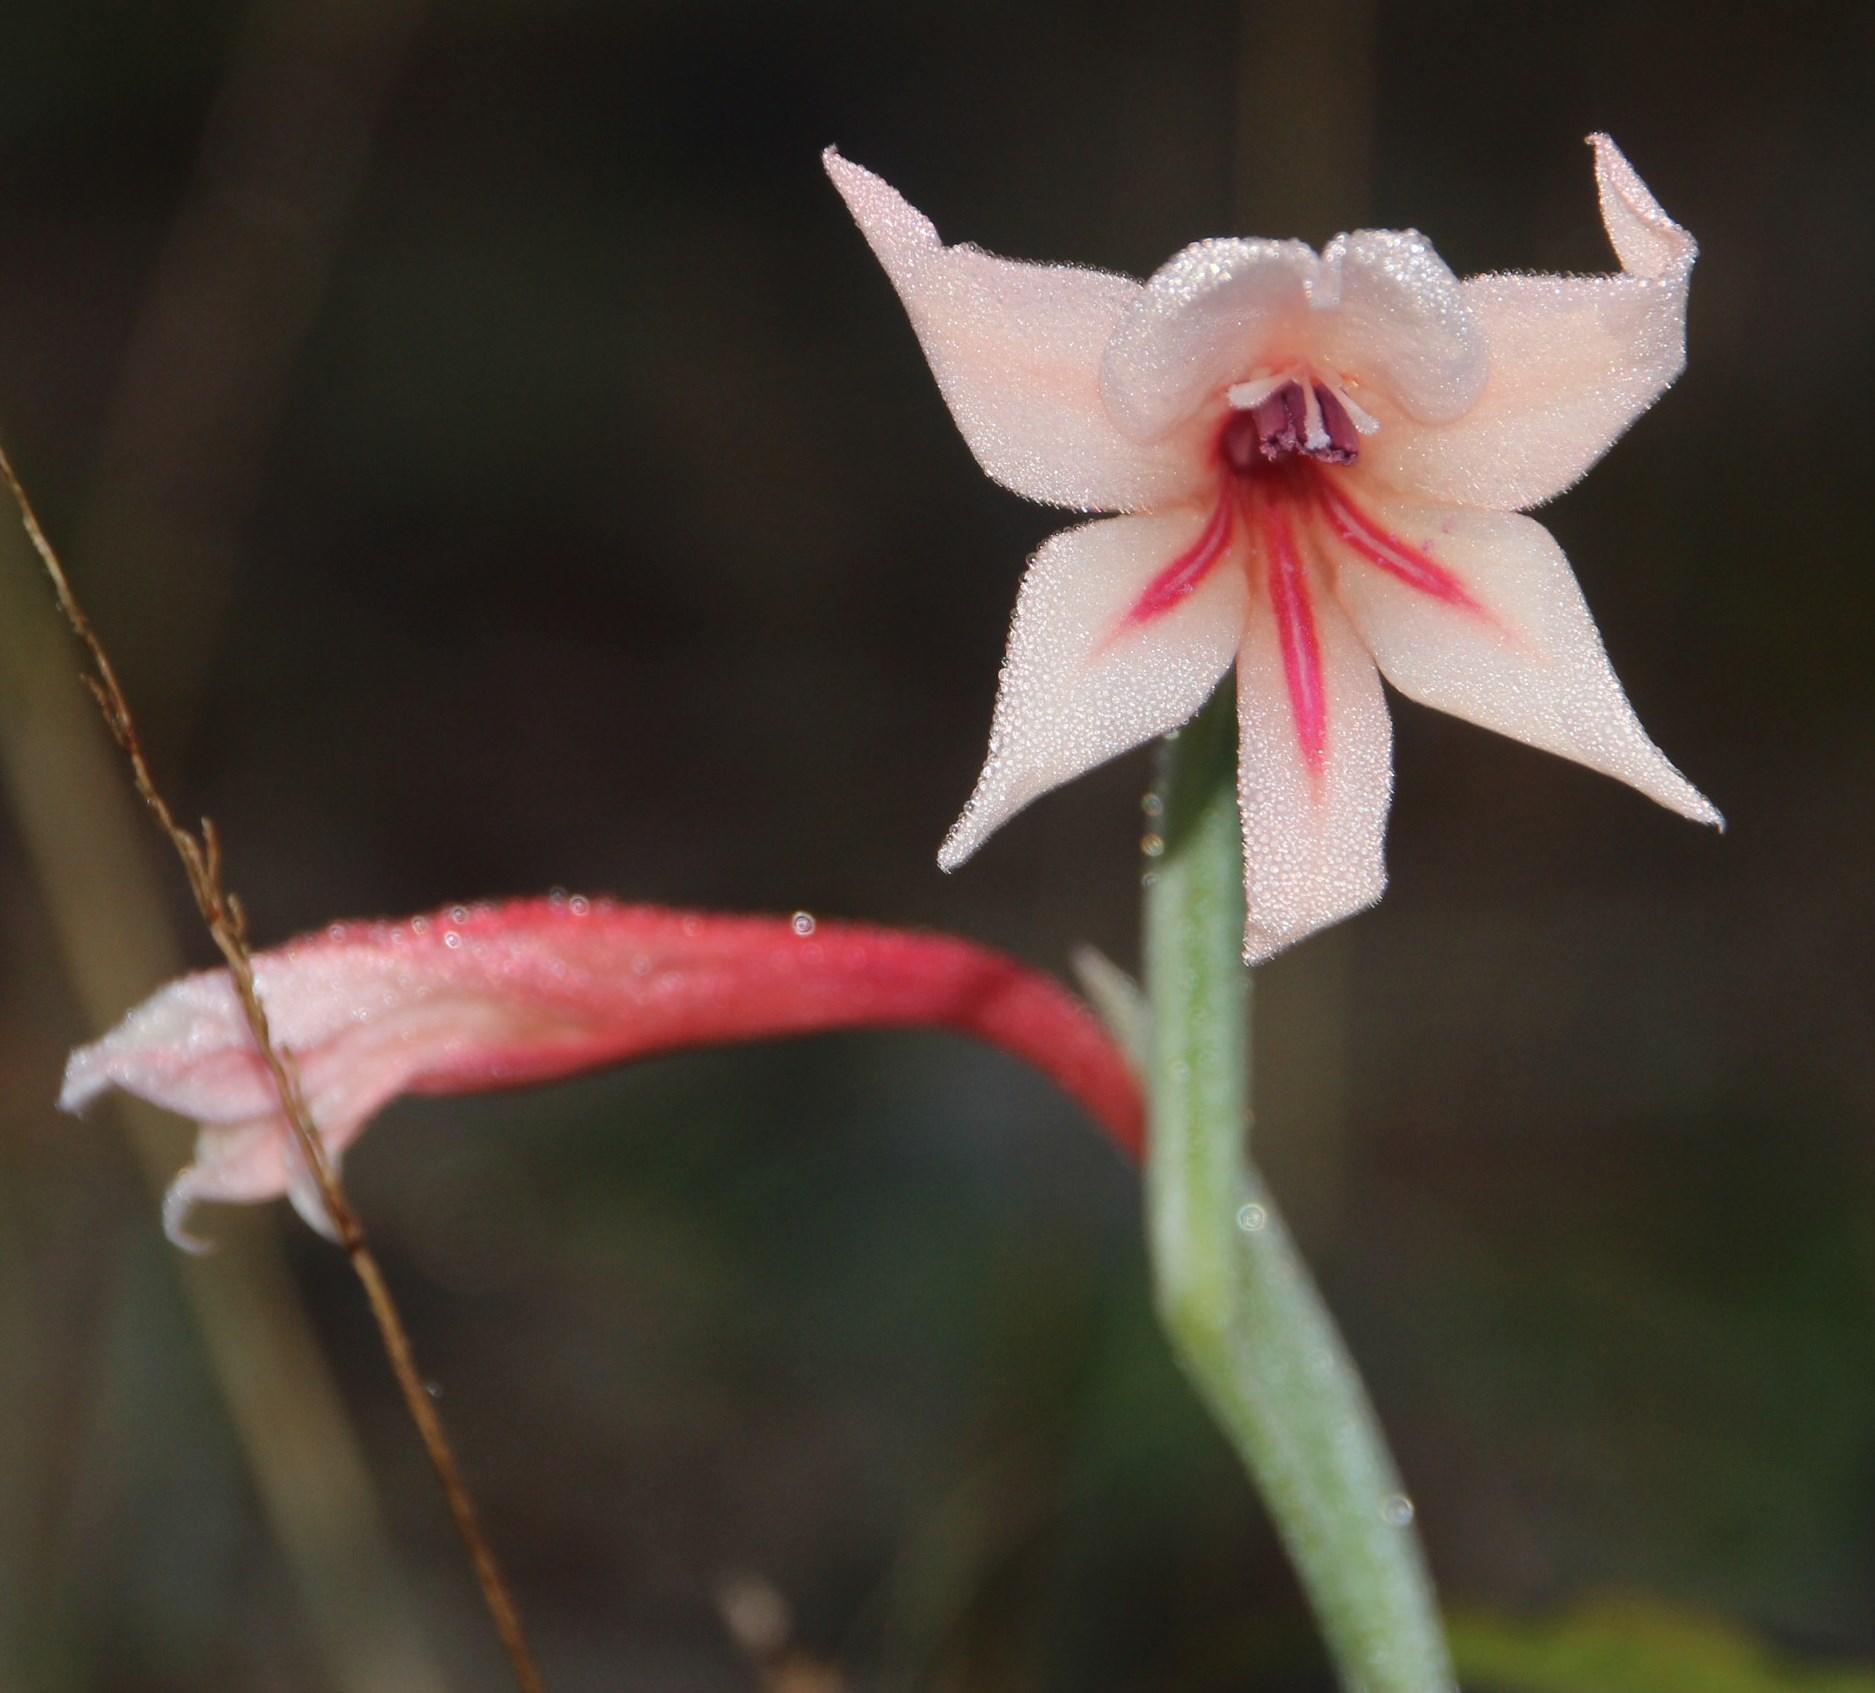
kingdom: Plantae
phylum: Tracheophyta
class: Liliopsida
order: Asparagales
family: Iridaceae
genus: Gladiolus
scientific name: Gladiolus bilineatus
